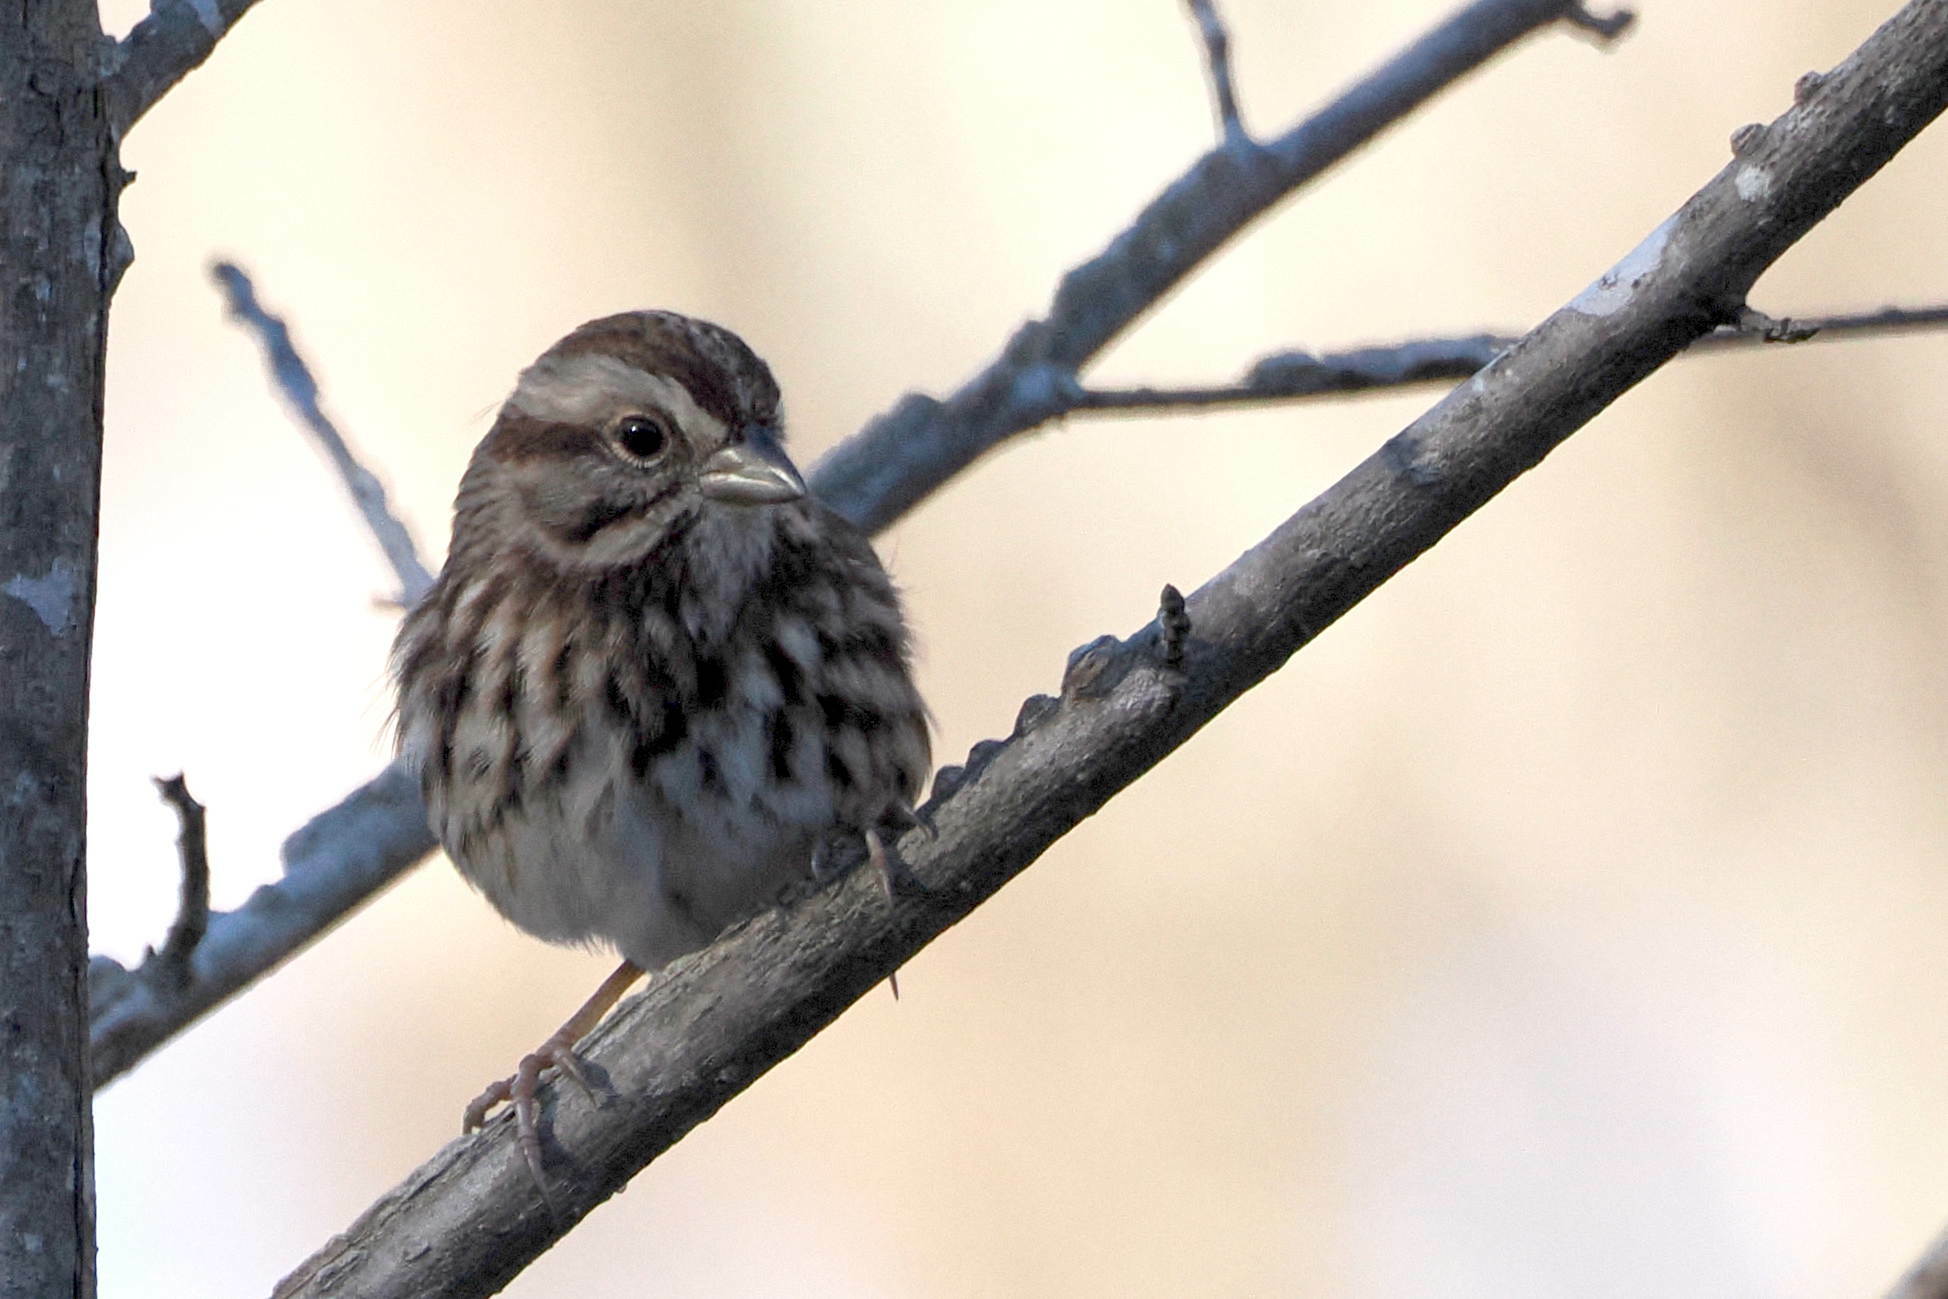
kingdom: Animalia
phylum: Chordata
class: Aves
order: Passeriformes
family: Passerellidae
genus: Melospiza
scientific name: Melospiza melodia
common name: Song sparrow
